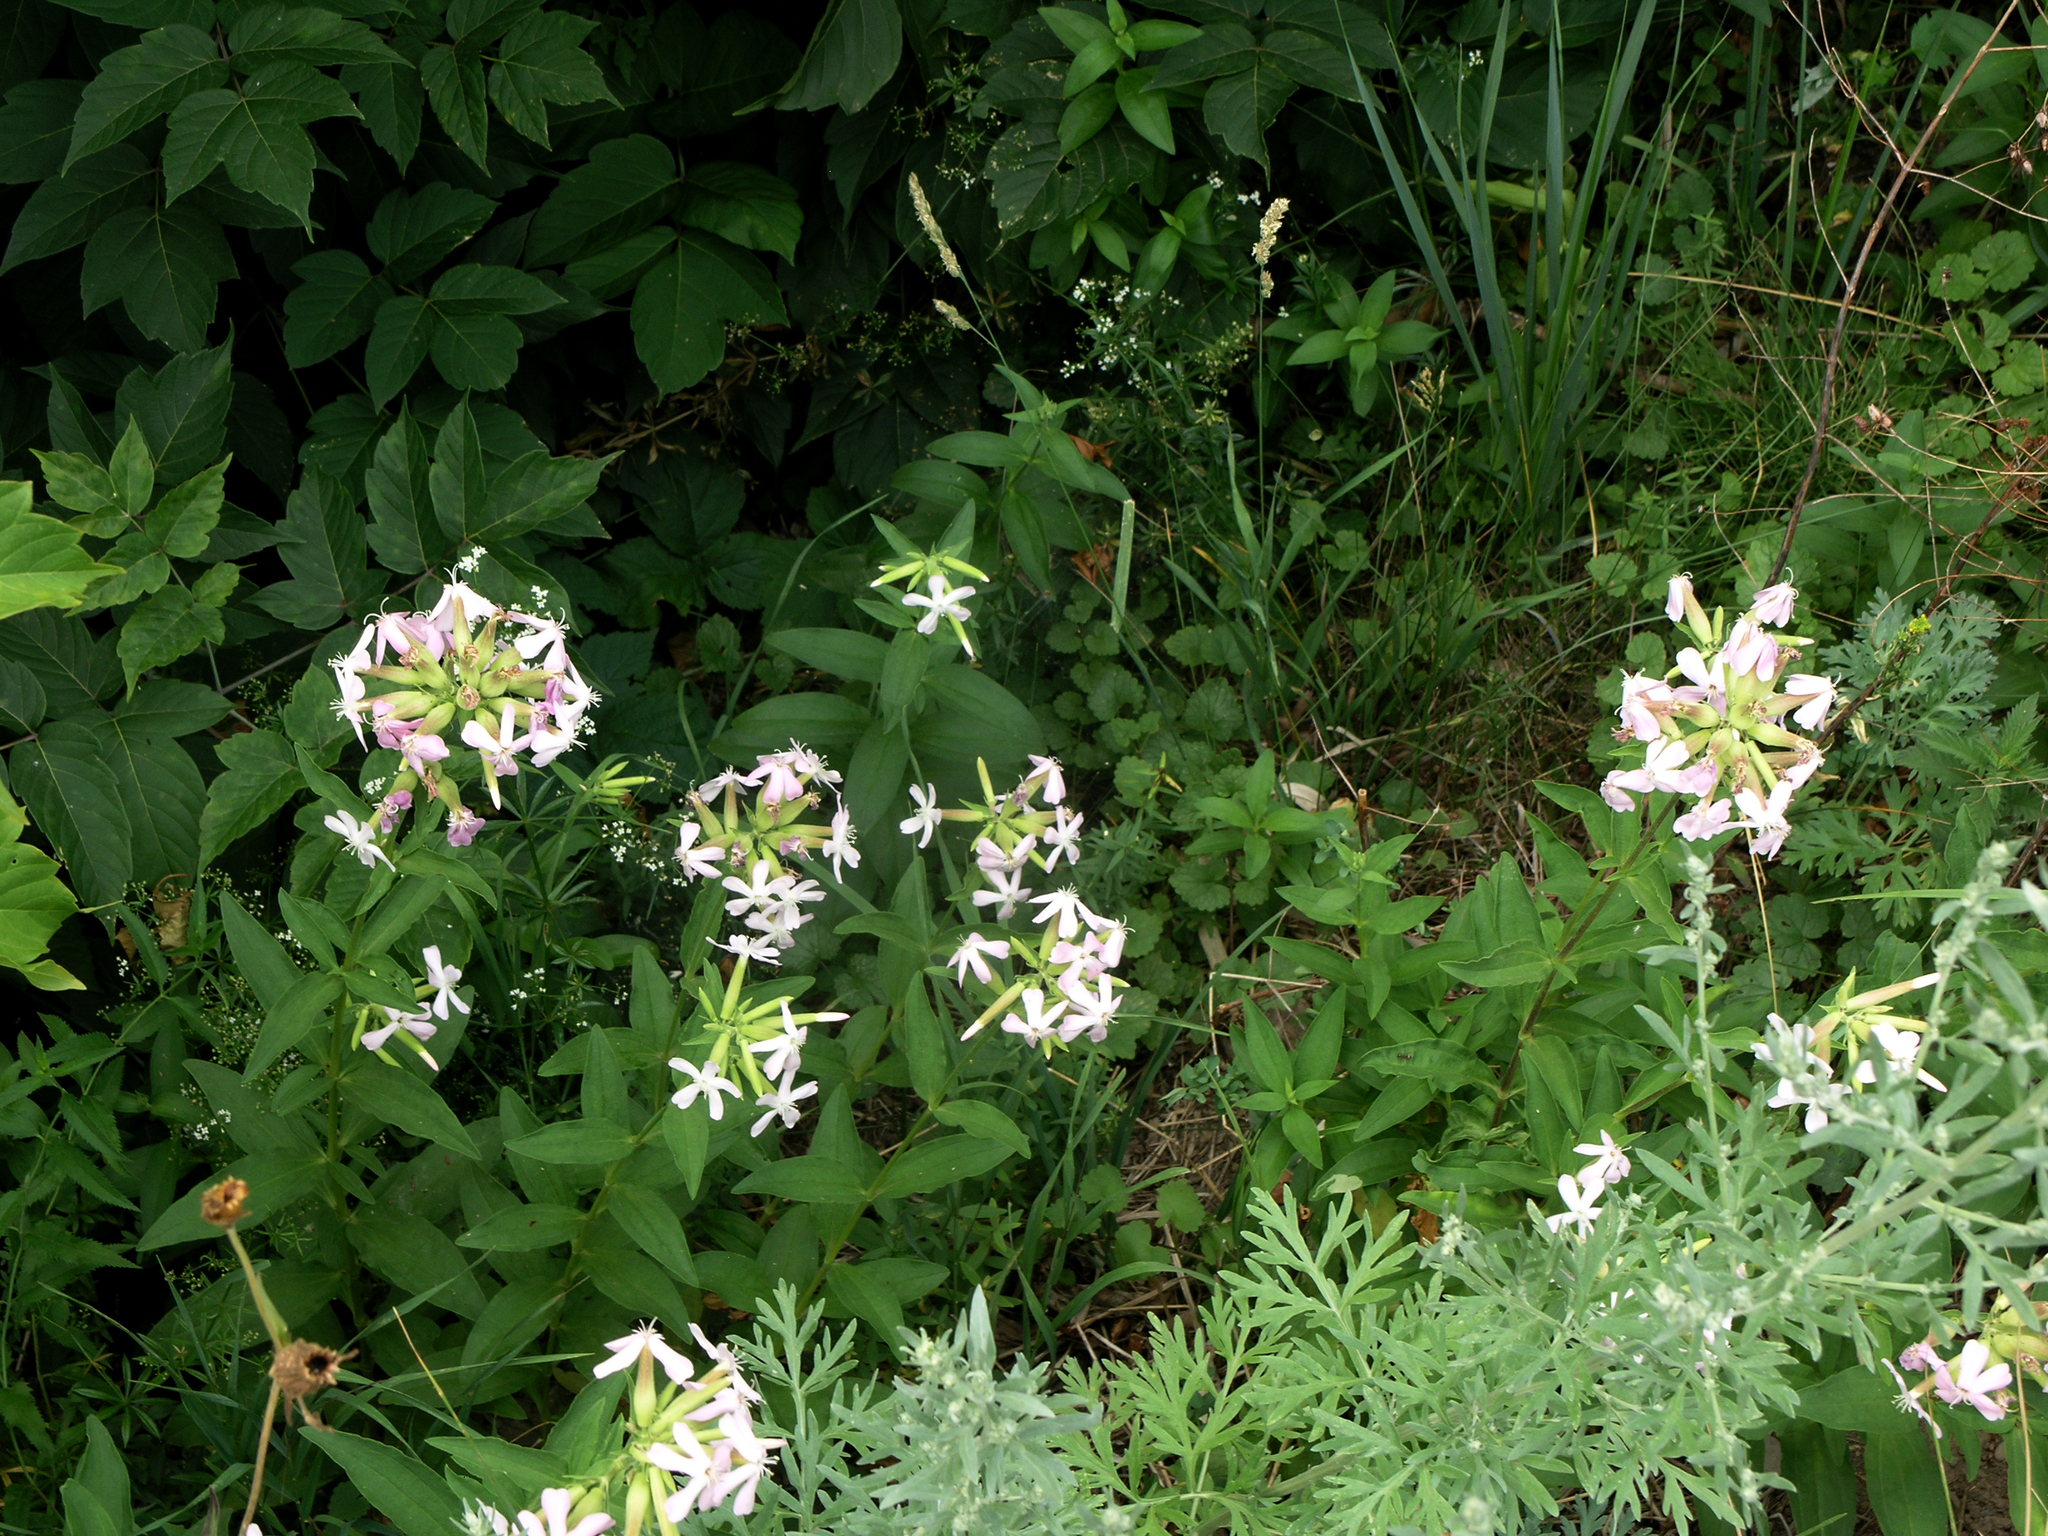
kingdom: Plantae
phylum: Tracheophyta
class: Magnoliopsida
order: Caryophyllales
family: Caryophyllaceae
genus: Saponaria
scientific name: Saponaria officinalis
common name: Soapwort
